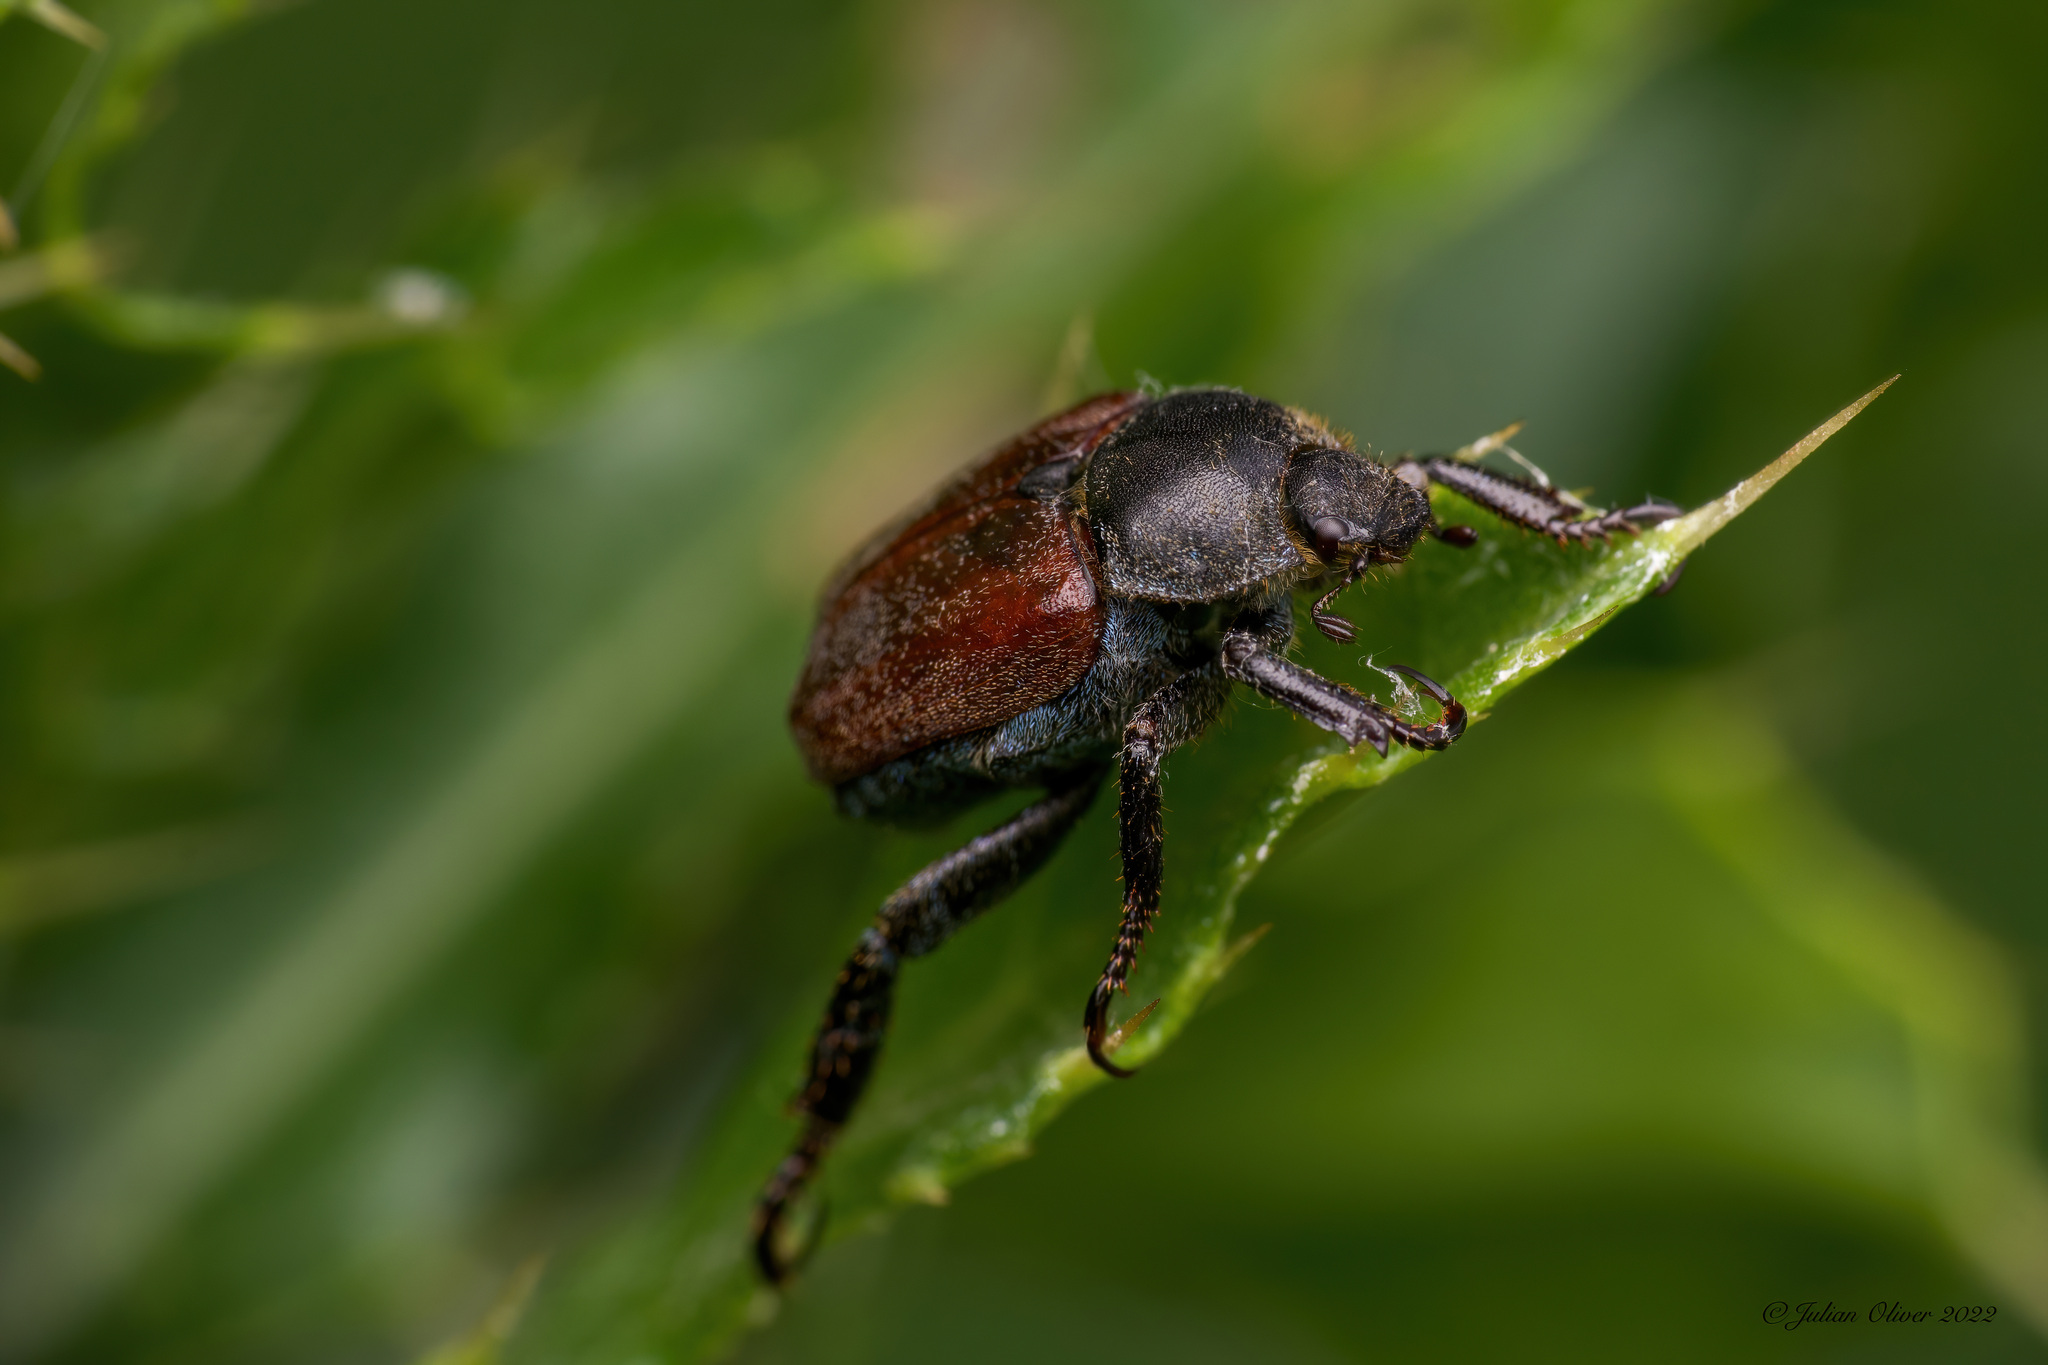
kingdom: Animalia
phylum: Arthropoda
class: Insecta
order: Coleoptera
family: Scarabaeidae
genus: Hoplia
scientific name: Hoplia philanthus
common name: Welsh chafer
